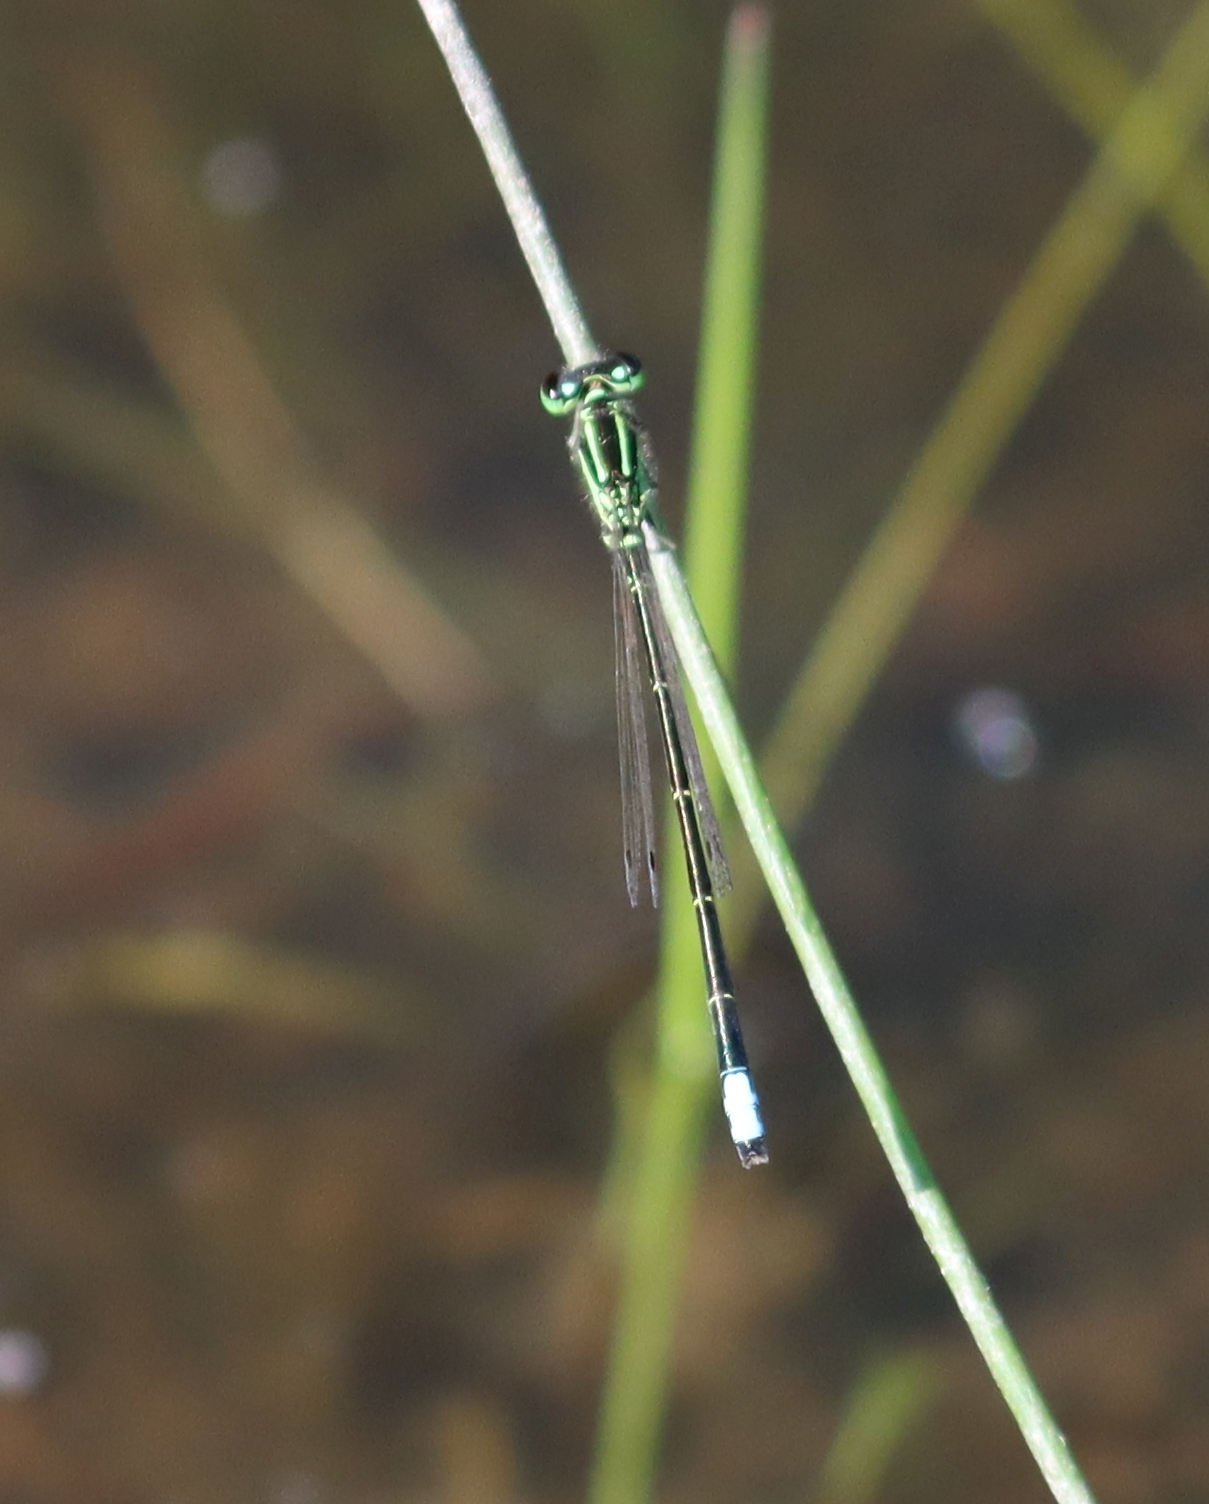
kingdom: Animalia
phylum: Arthropoda
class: Insecta
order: Odonata
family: Coenagrionidae
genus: Ischnura
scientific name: Ischnura verticalis
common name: Eastern forktail
